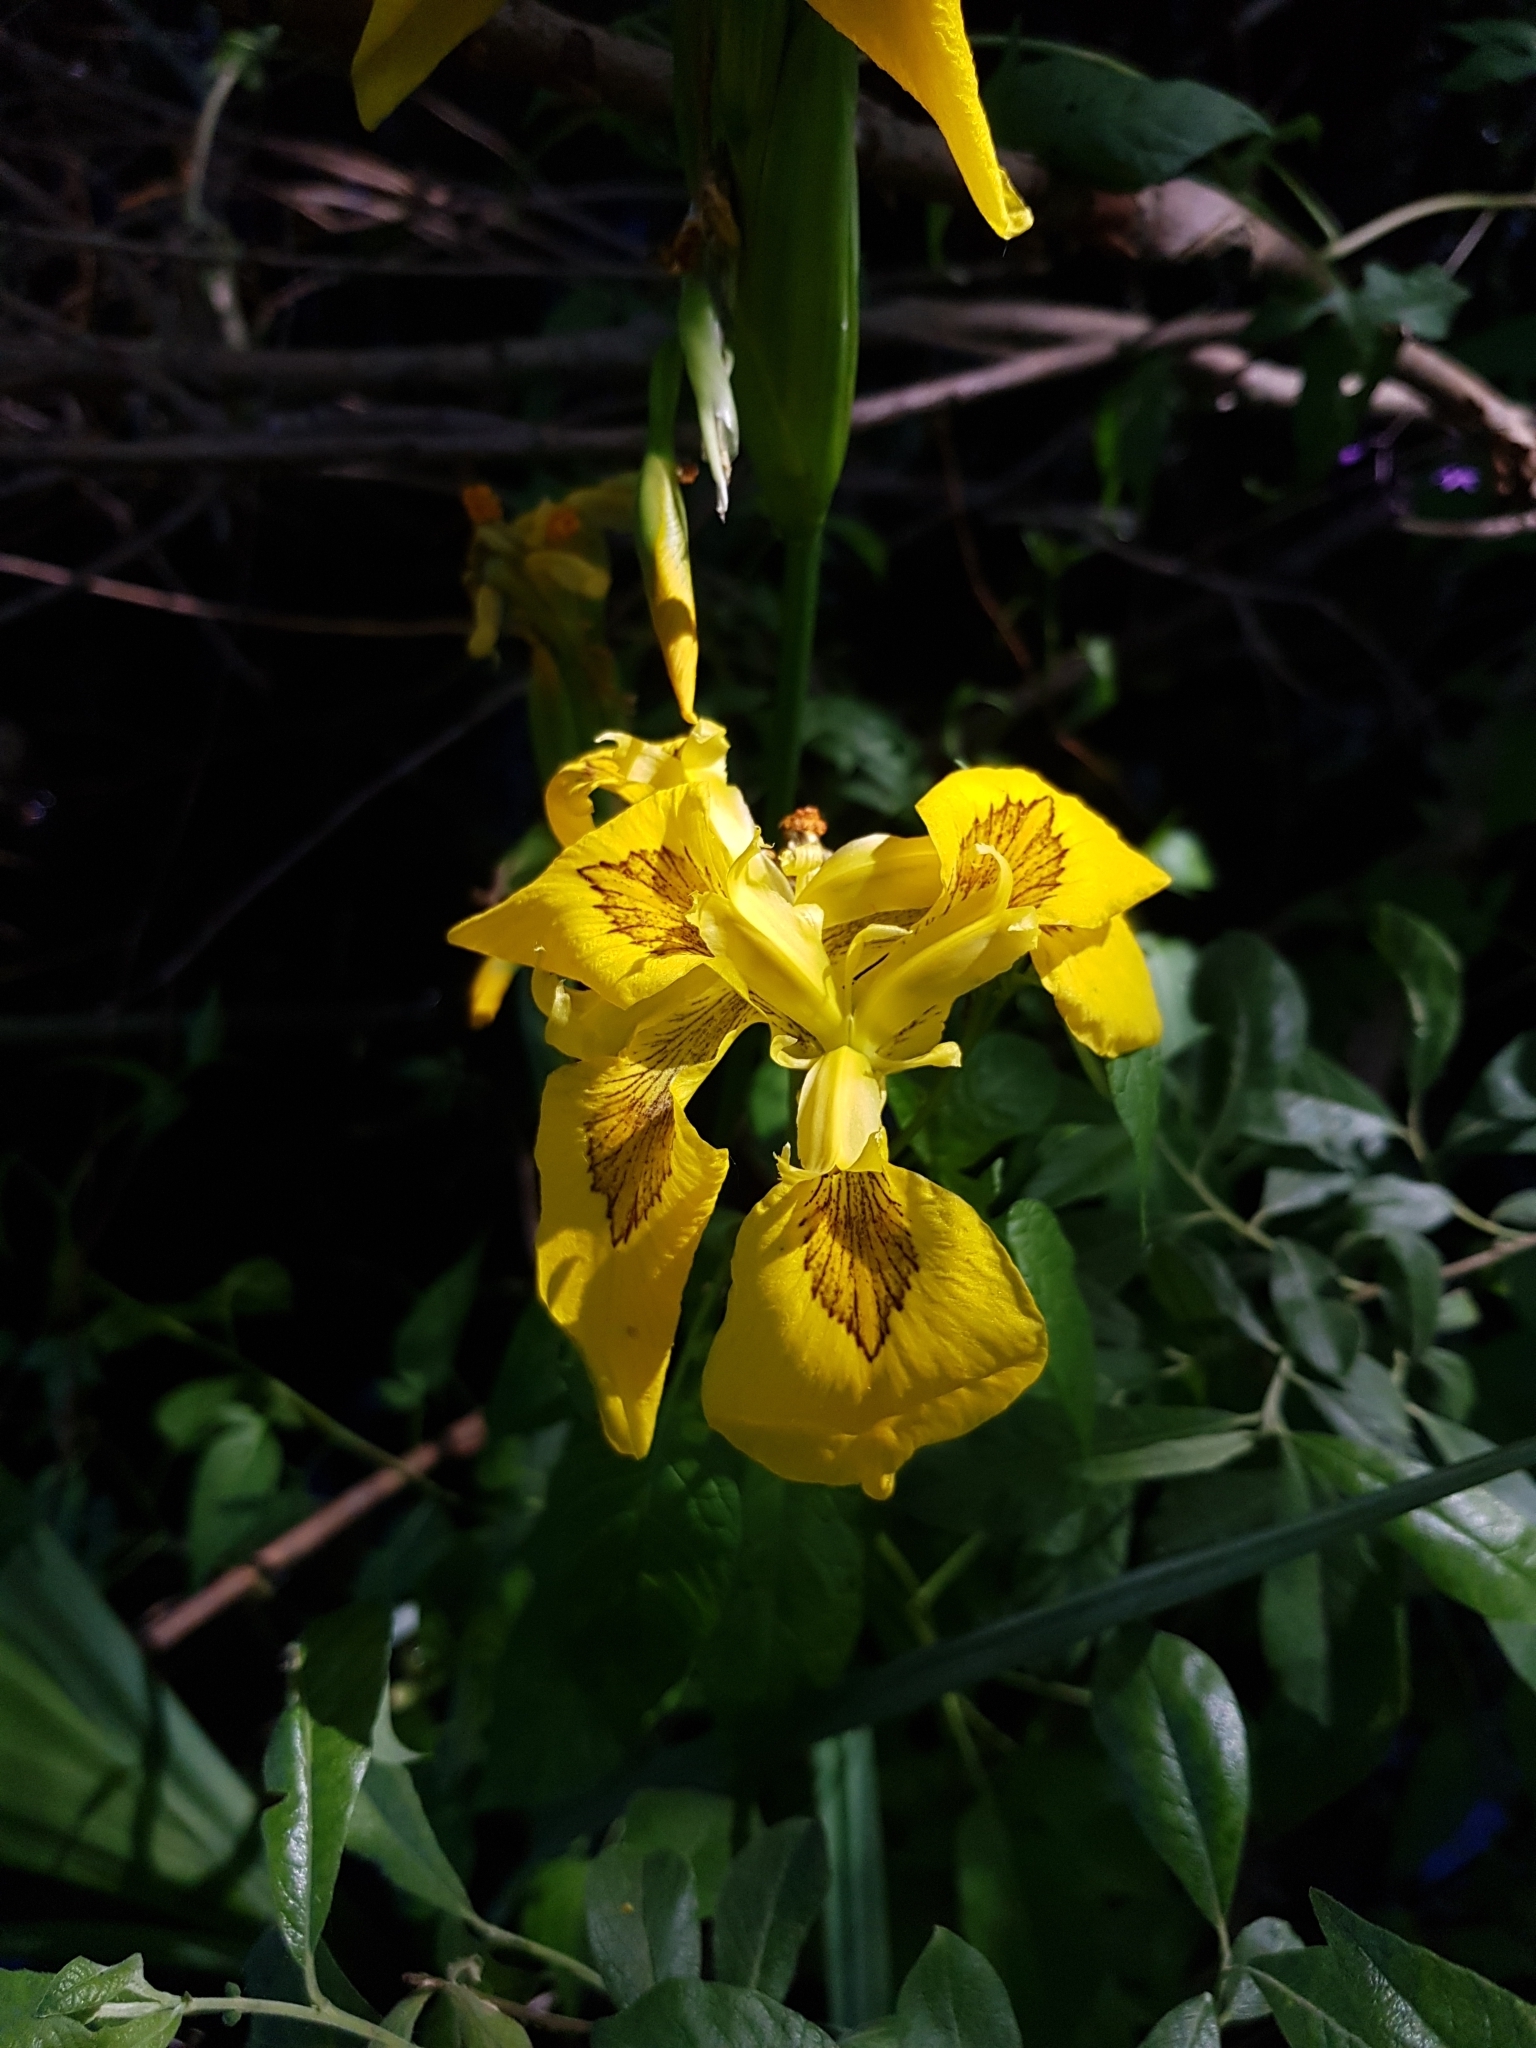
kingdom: Plantae
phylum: Tracheophyta
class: Liliopsida
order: Asparagales
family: Iridaceae
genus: Iris
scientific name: Iris pseudacorus
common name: Yellow flag
